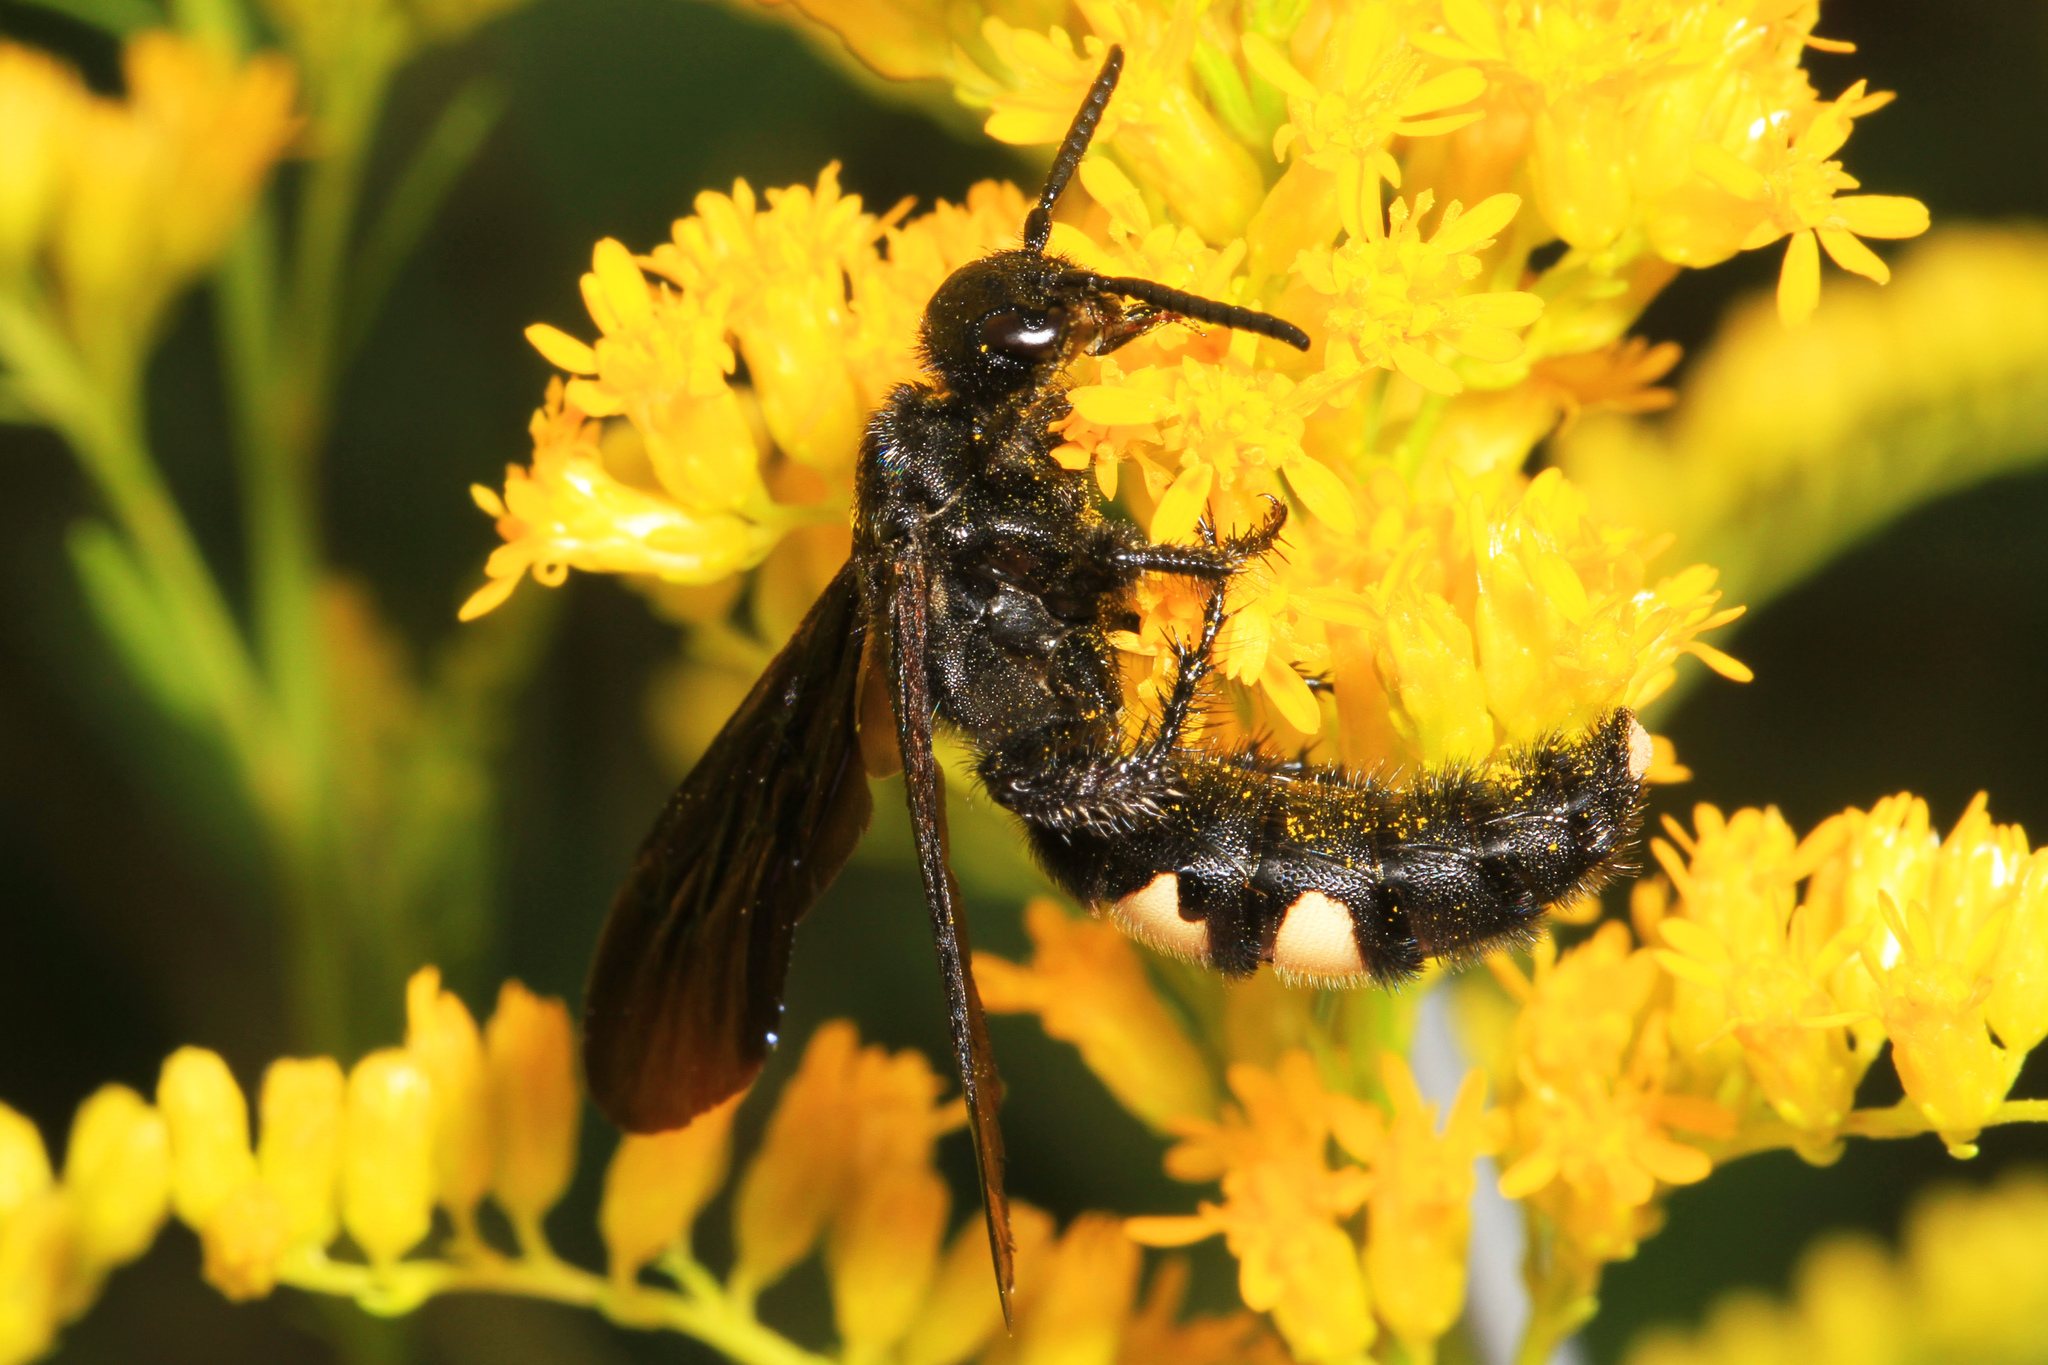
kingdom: Animalia
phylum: Arthropoda
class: Insecta
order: Hymenoptera
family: Scoliidae
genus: Scolia
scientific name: Scolia bicincta
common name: Double-banded scoliid wasp
